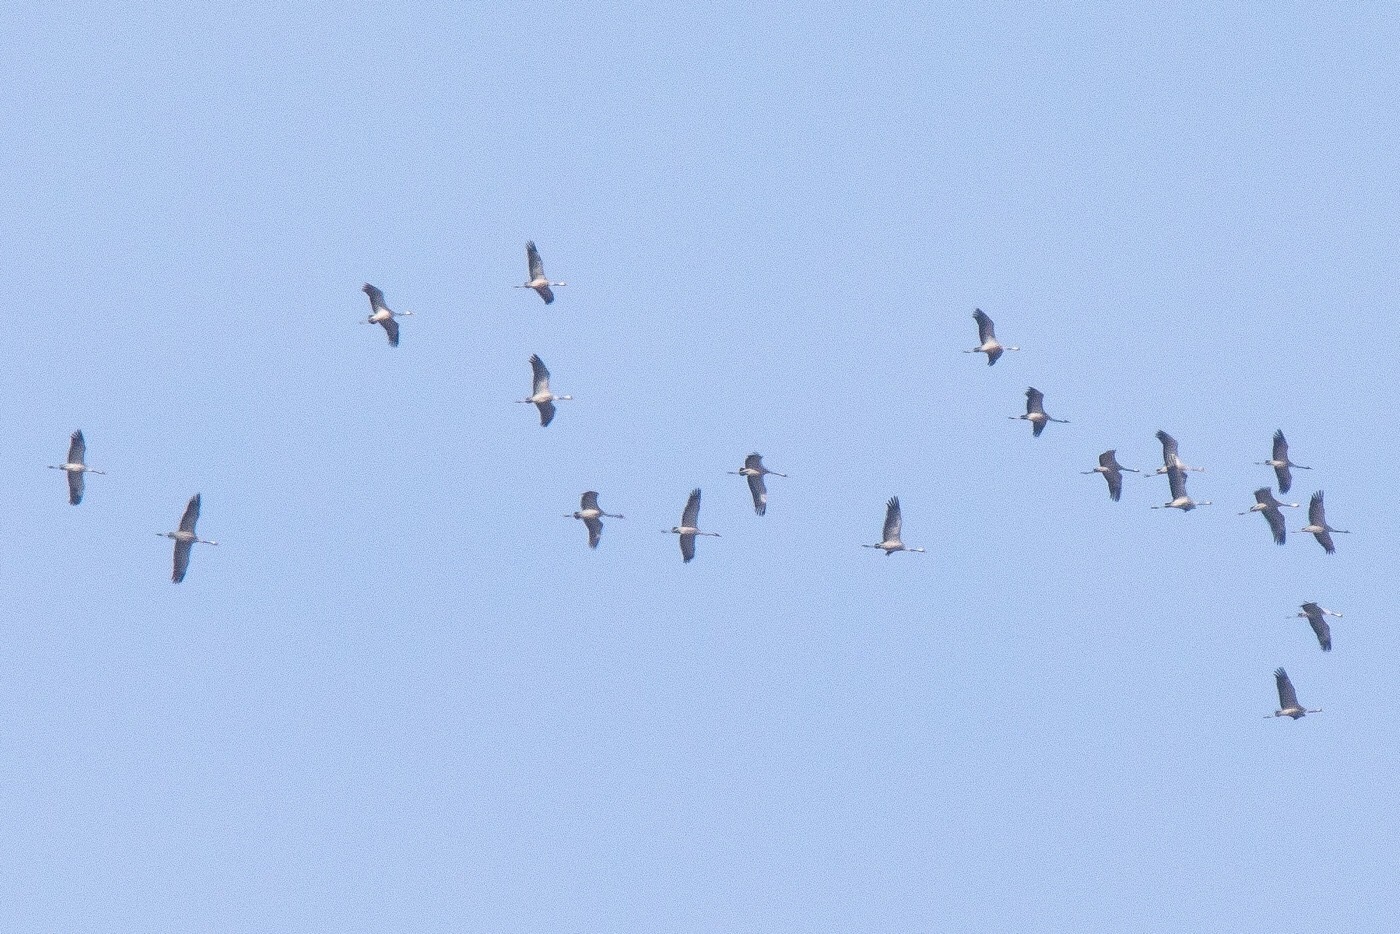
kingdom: Animalia
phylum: Chordata
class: Aves
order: Gruiformes
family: Gruidae
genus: Grus
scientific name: Grus grus
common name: Common crane
